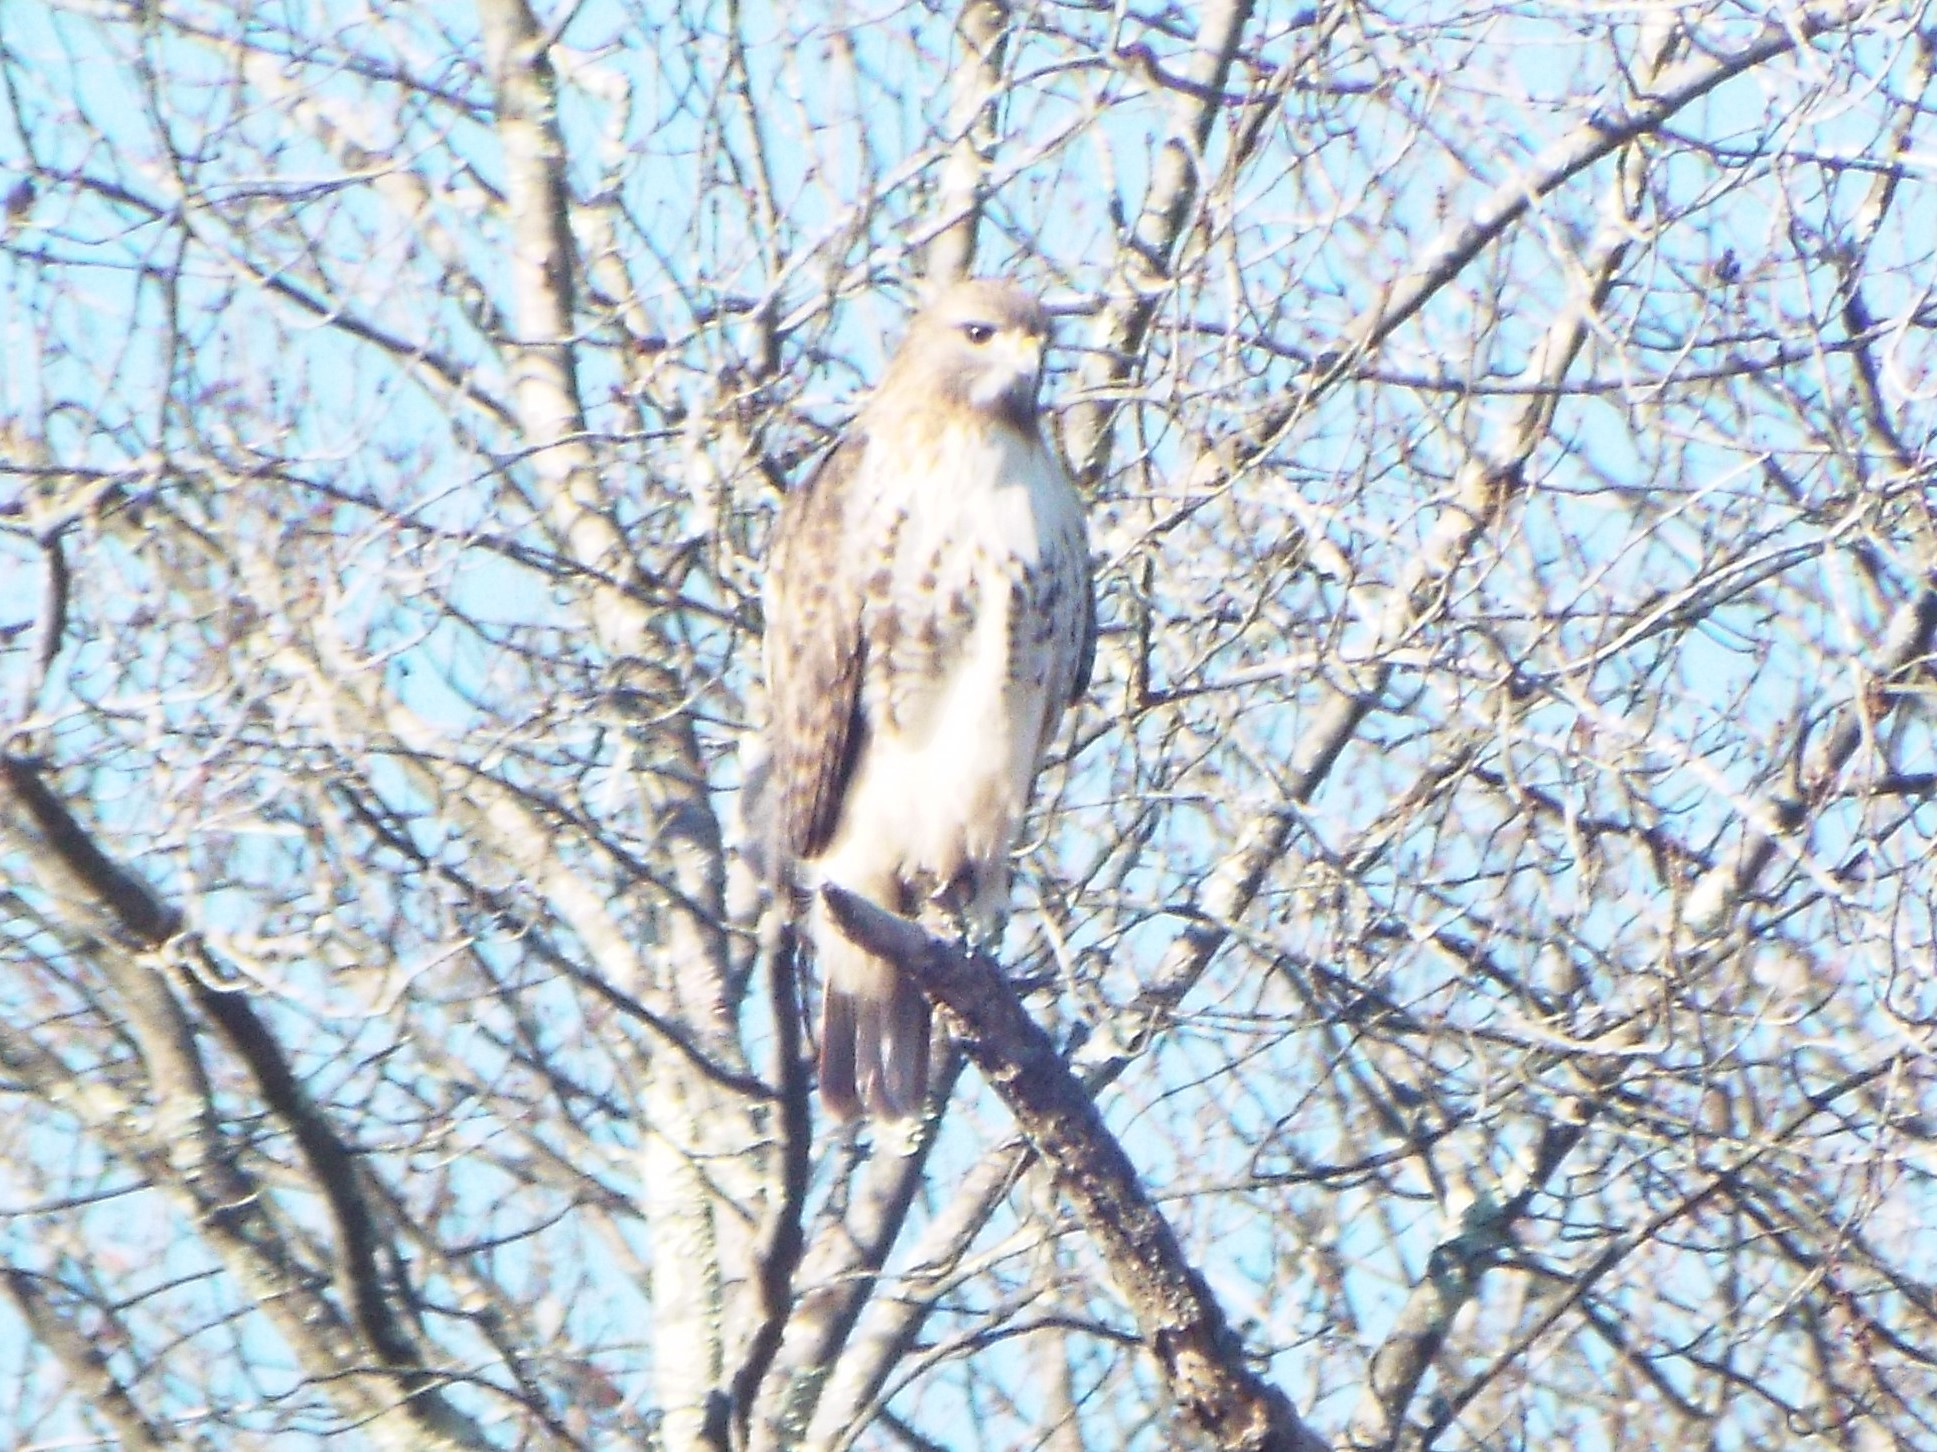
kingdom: Animalia
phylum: Chordata
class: Aves
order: Accipitriformes
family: Accipitridae
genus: Buteo
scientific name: Buteo jamaicensis
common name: Red-tailed hawk
